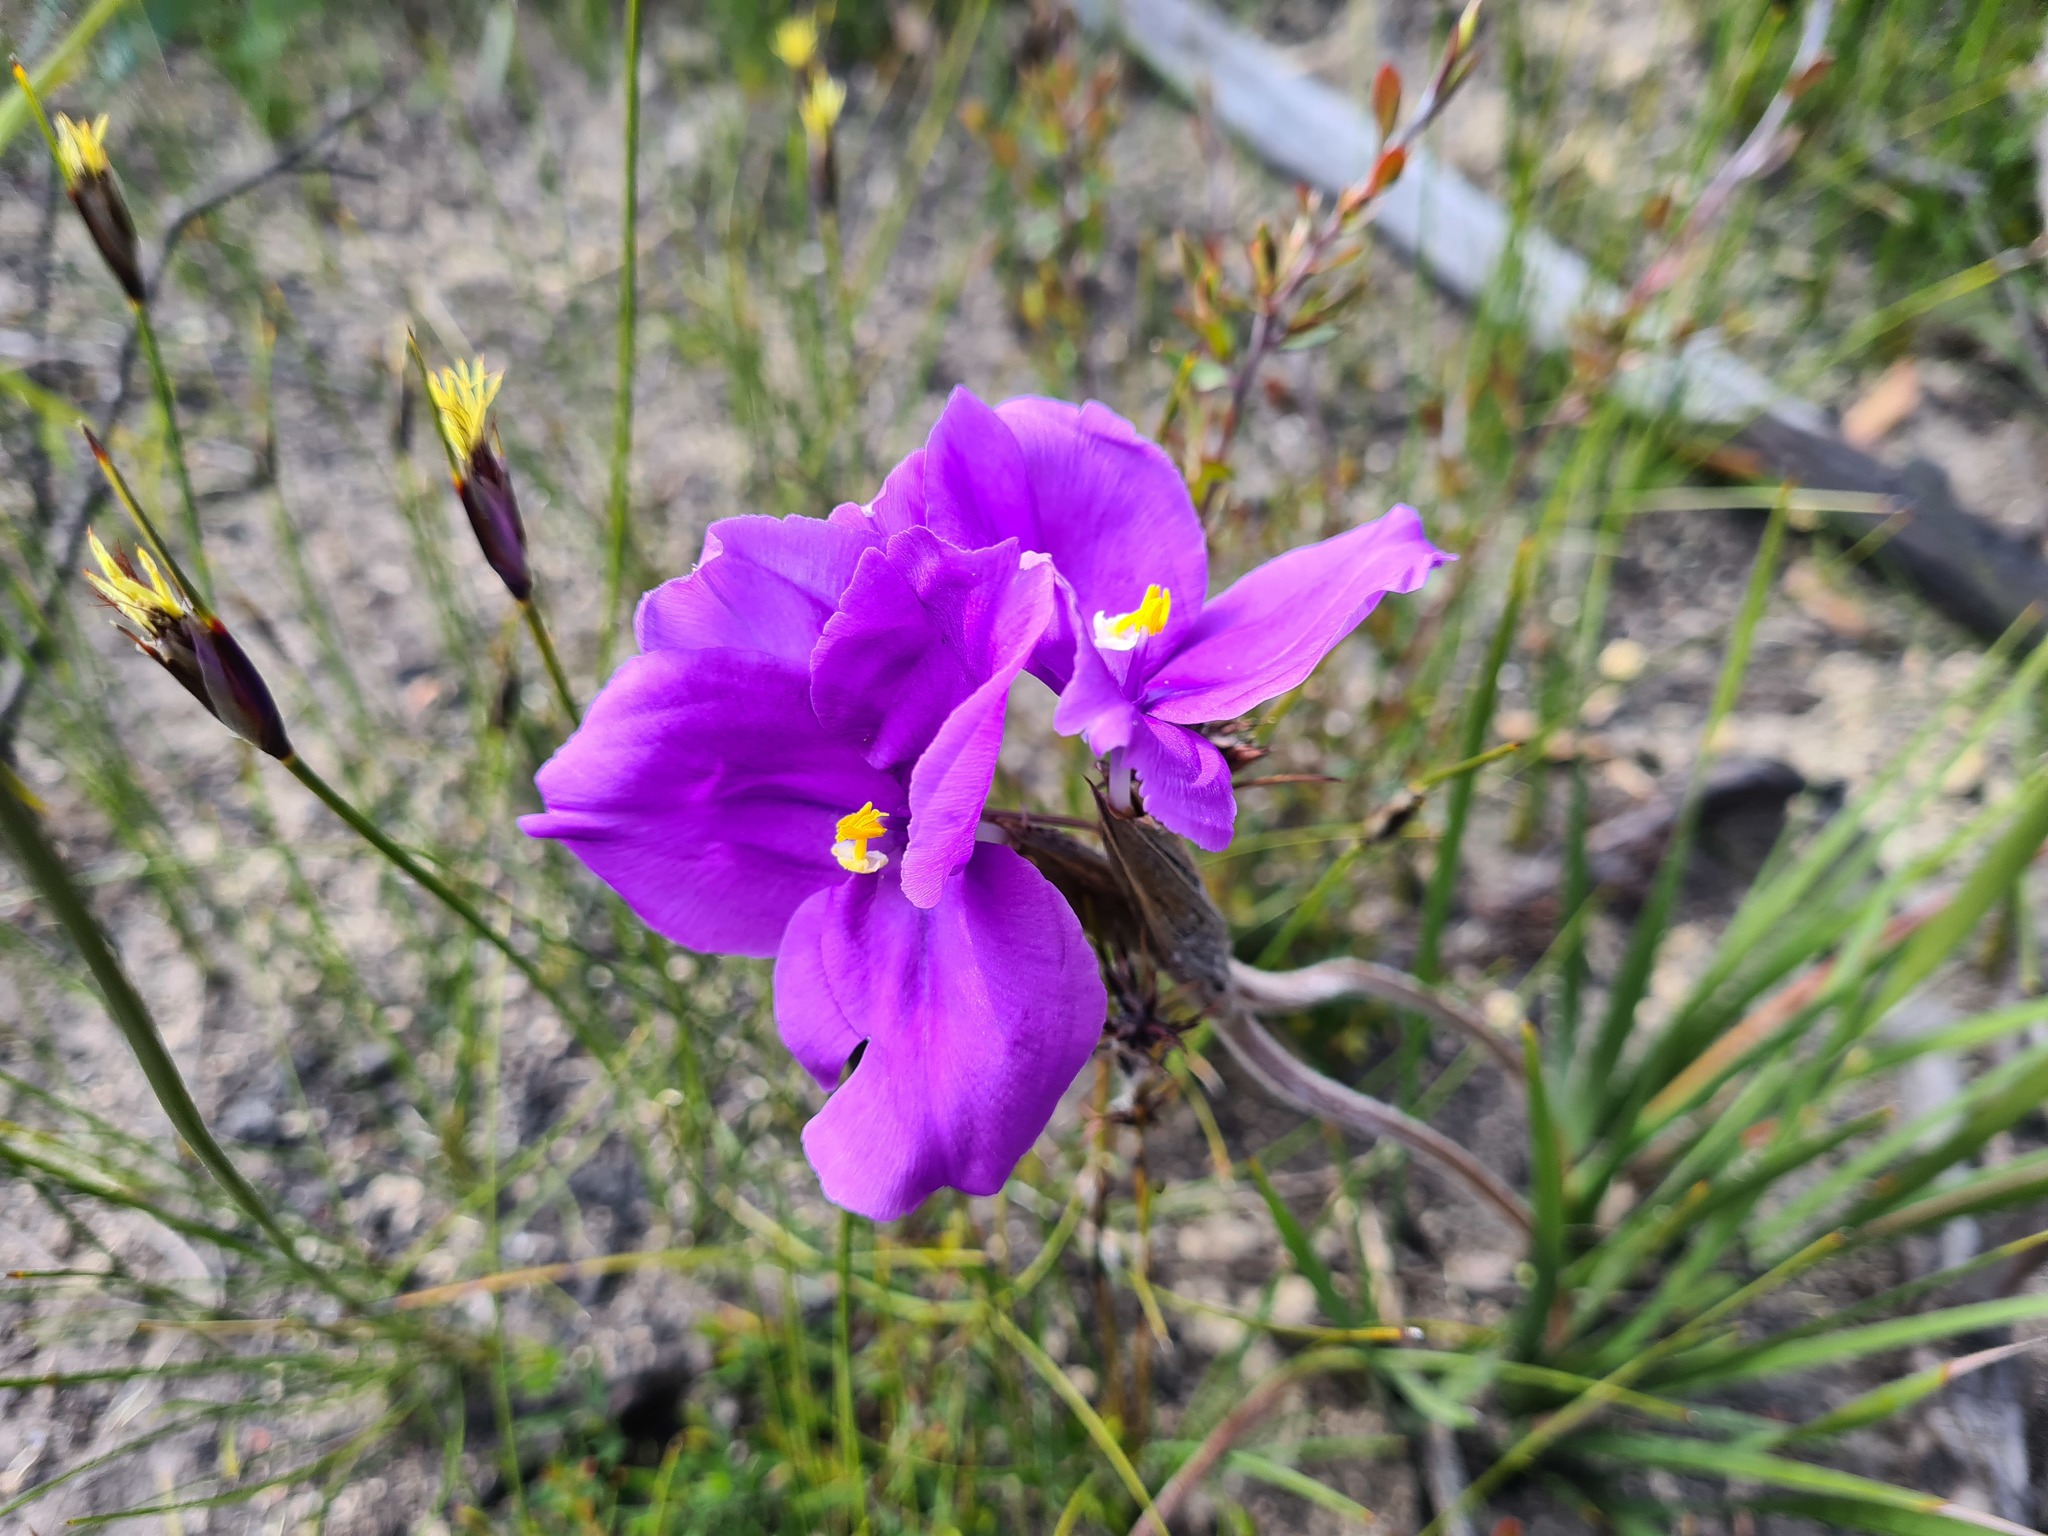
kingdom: Plantae
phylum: Tracheophyta
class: Liliopsida
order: Asparagales
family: Iridaceae
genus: Patersonia
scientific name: Patersonia sericea
